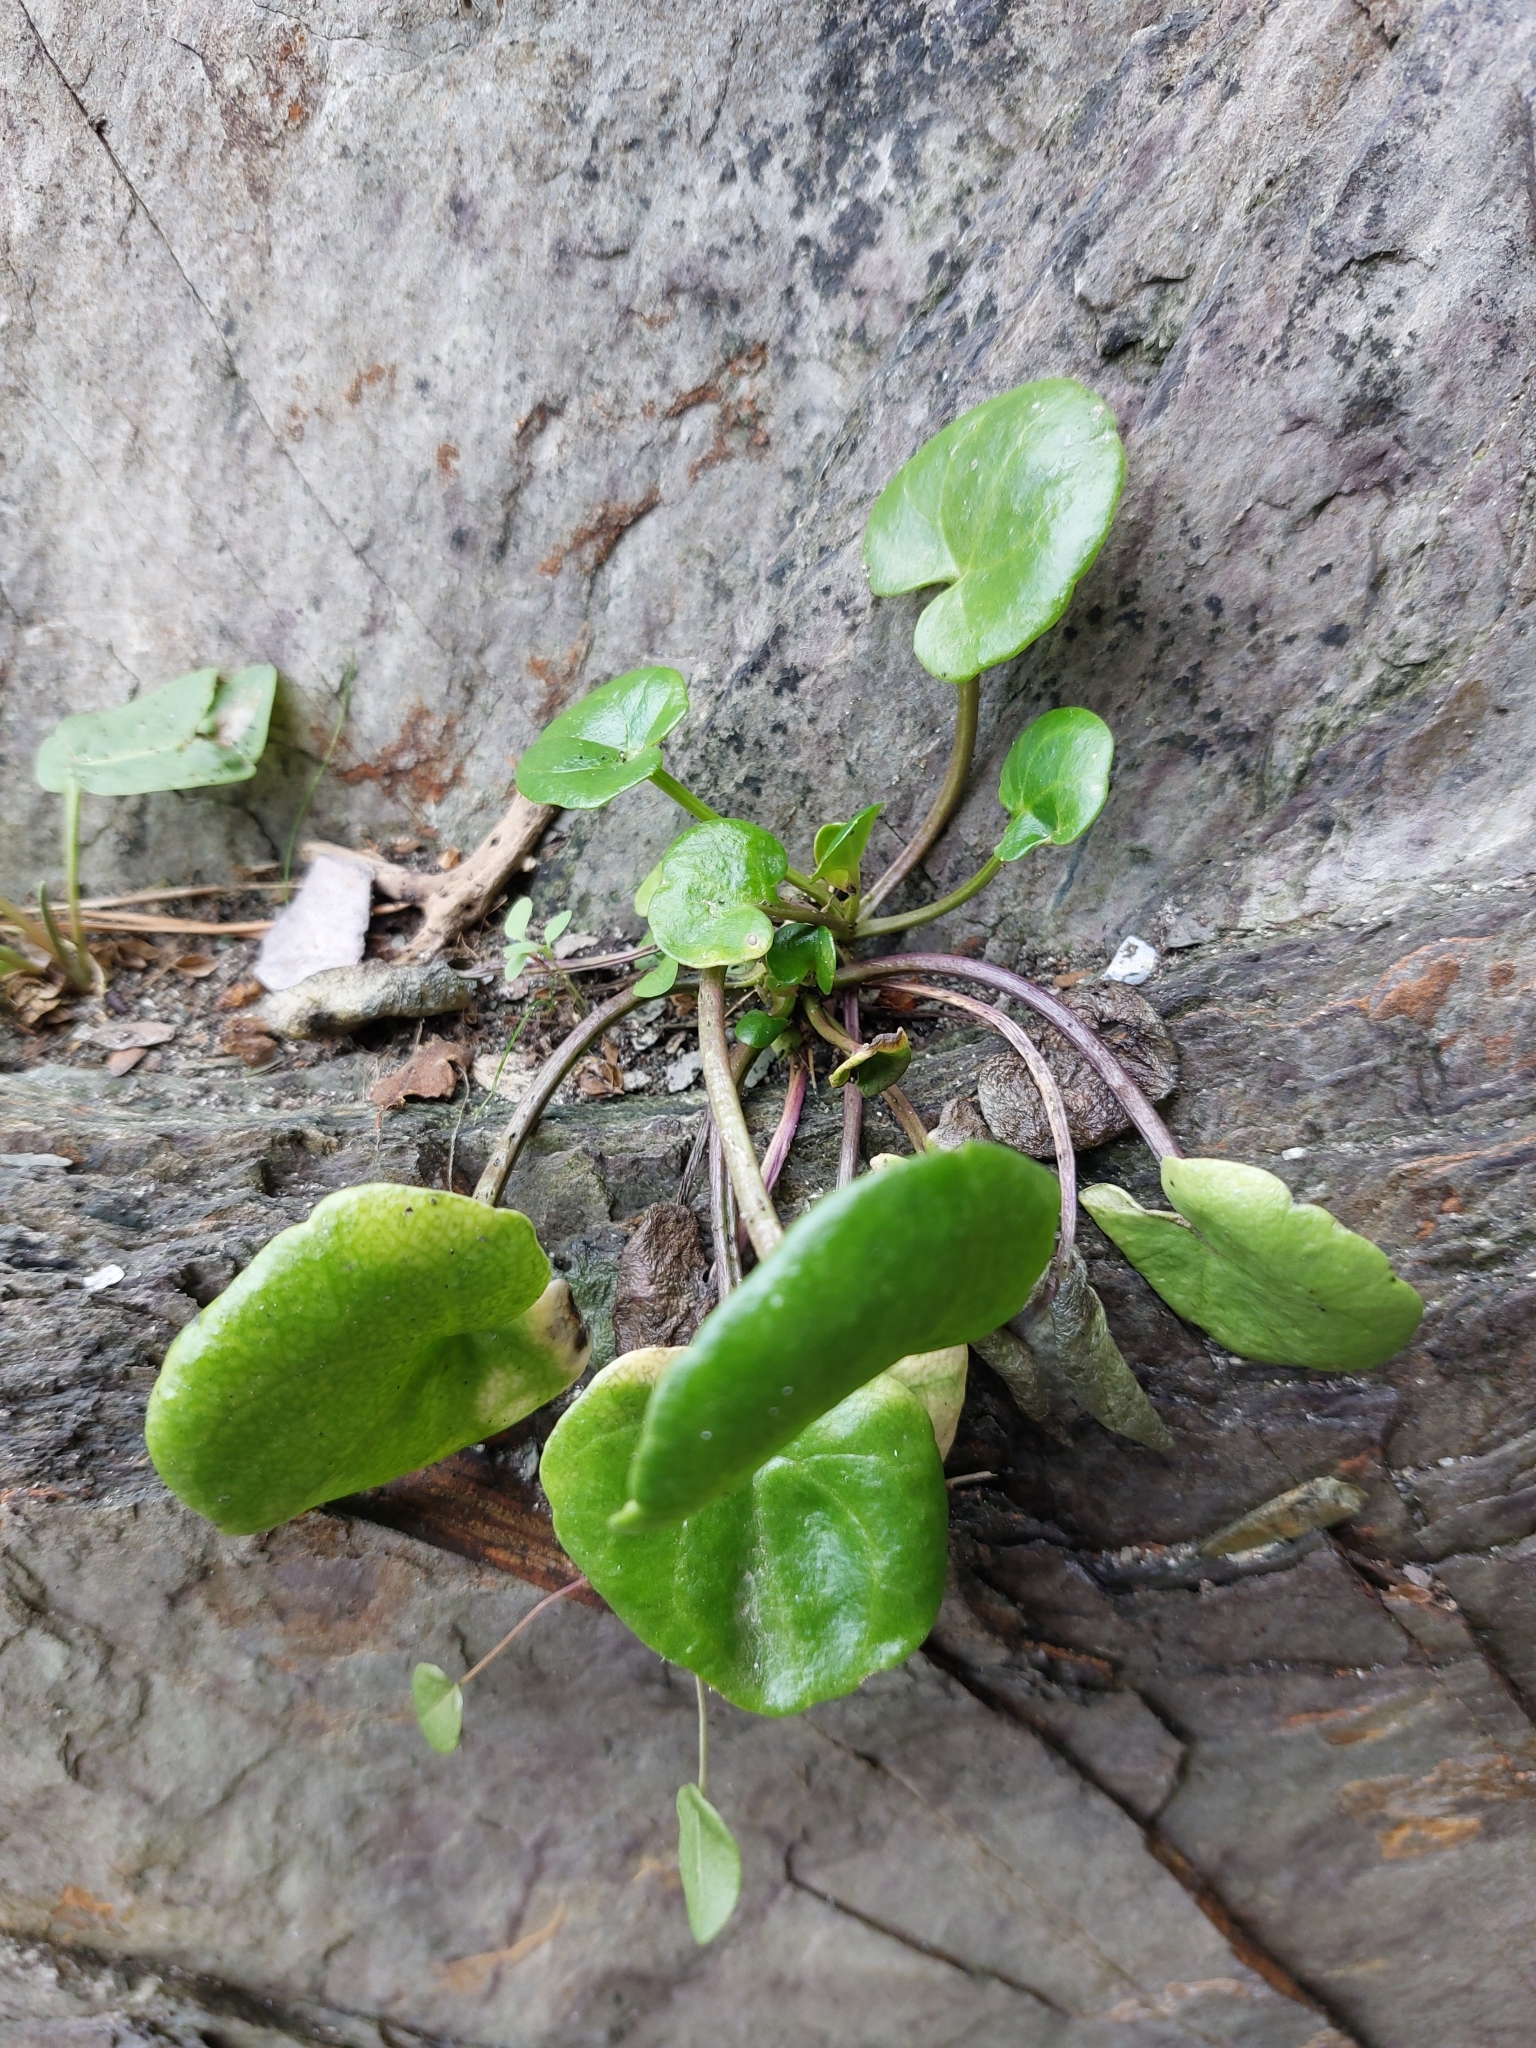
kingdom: Plantae
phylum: Tracheophyta
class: Magnoliopsida
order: Saxifragales
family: Crassulaceae
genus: Umbilicus
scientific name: Umbilicus rupestris
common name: Navelwort
